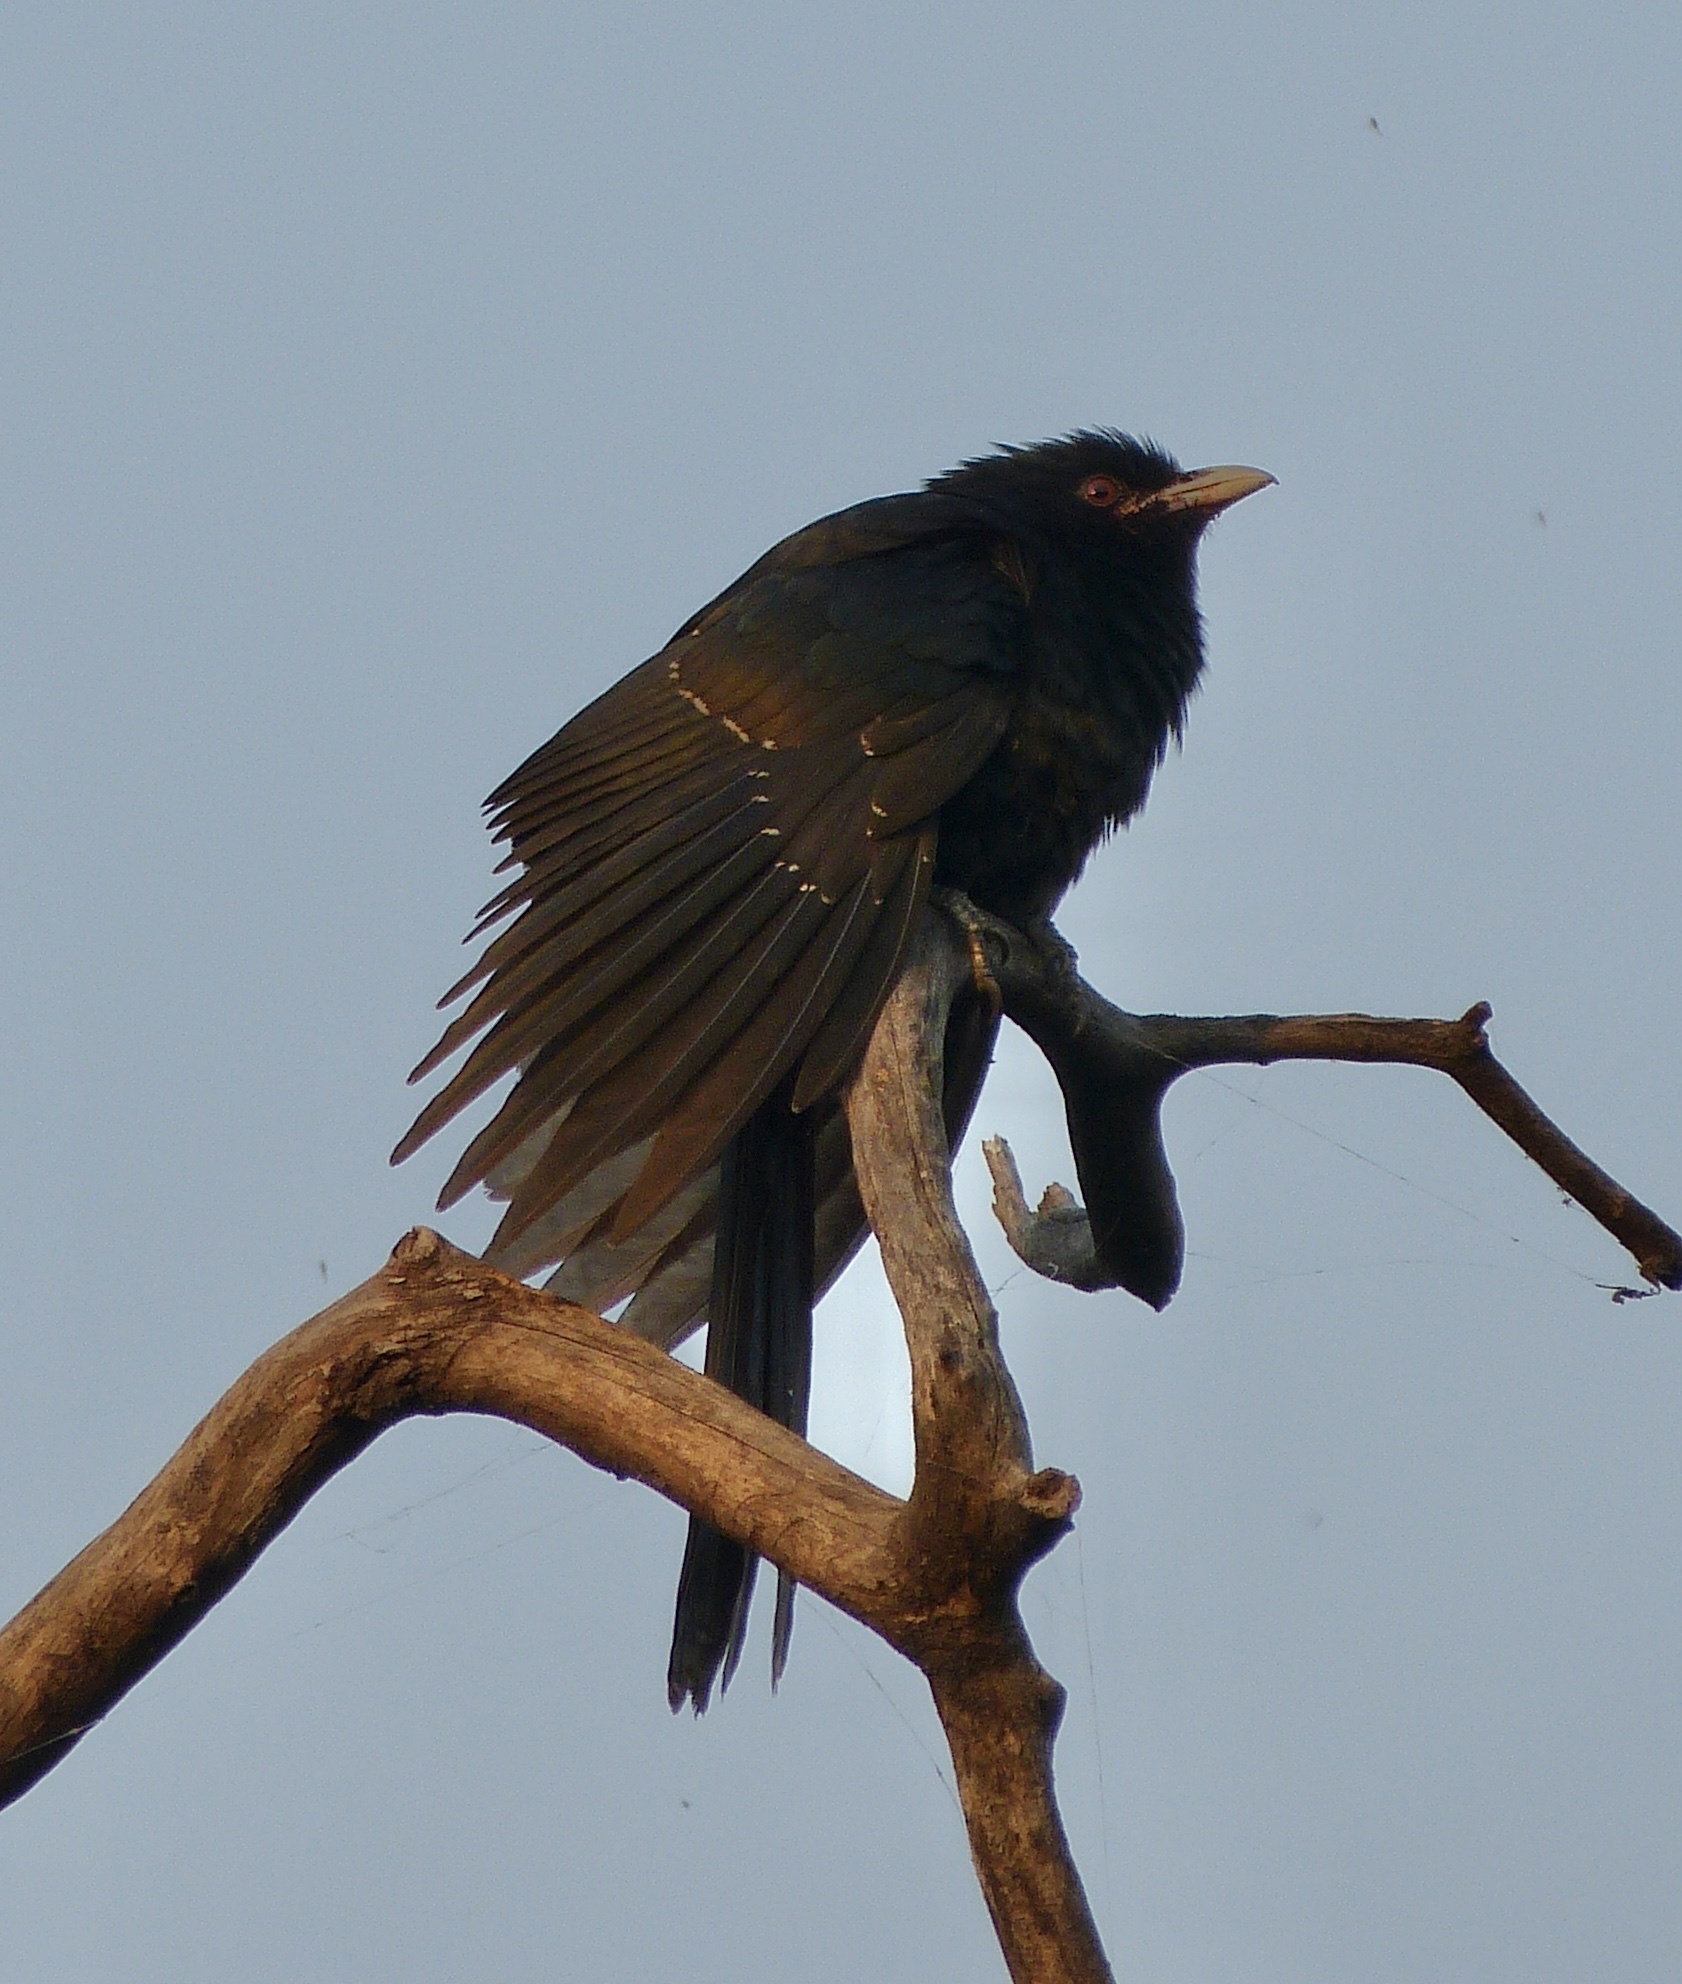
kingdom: Animalia
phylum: Chordata
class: Aves
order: Cuculiformes
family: Cuculidae
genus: Eudynamys
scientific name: Eudynamys scolopaceus
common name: Asian koel
